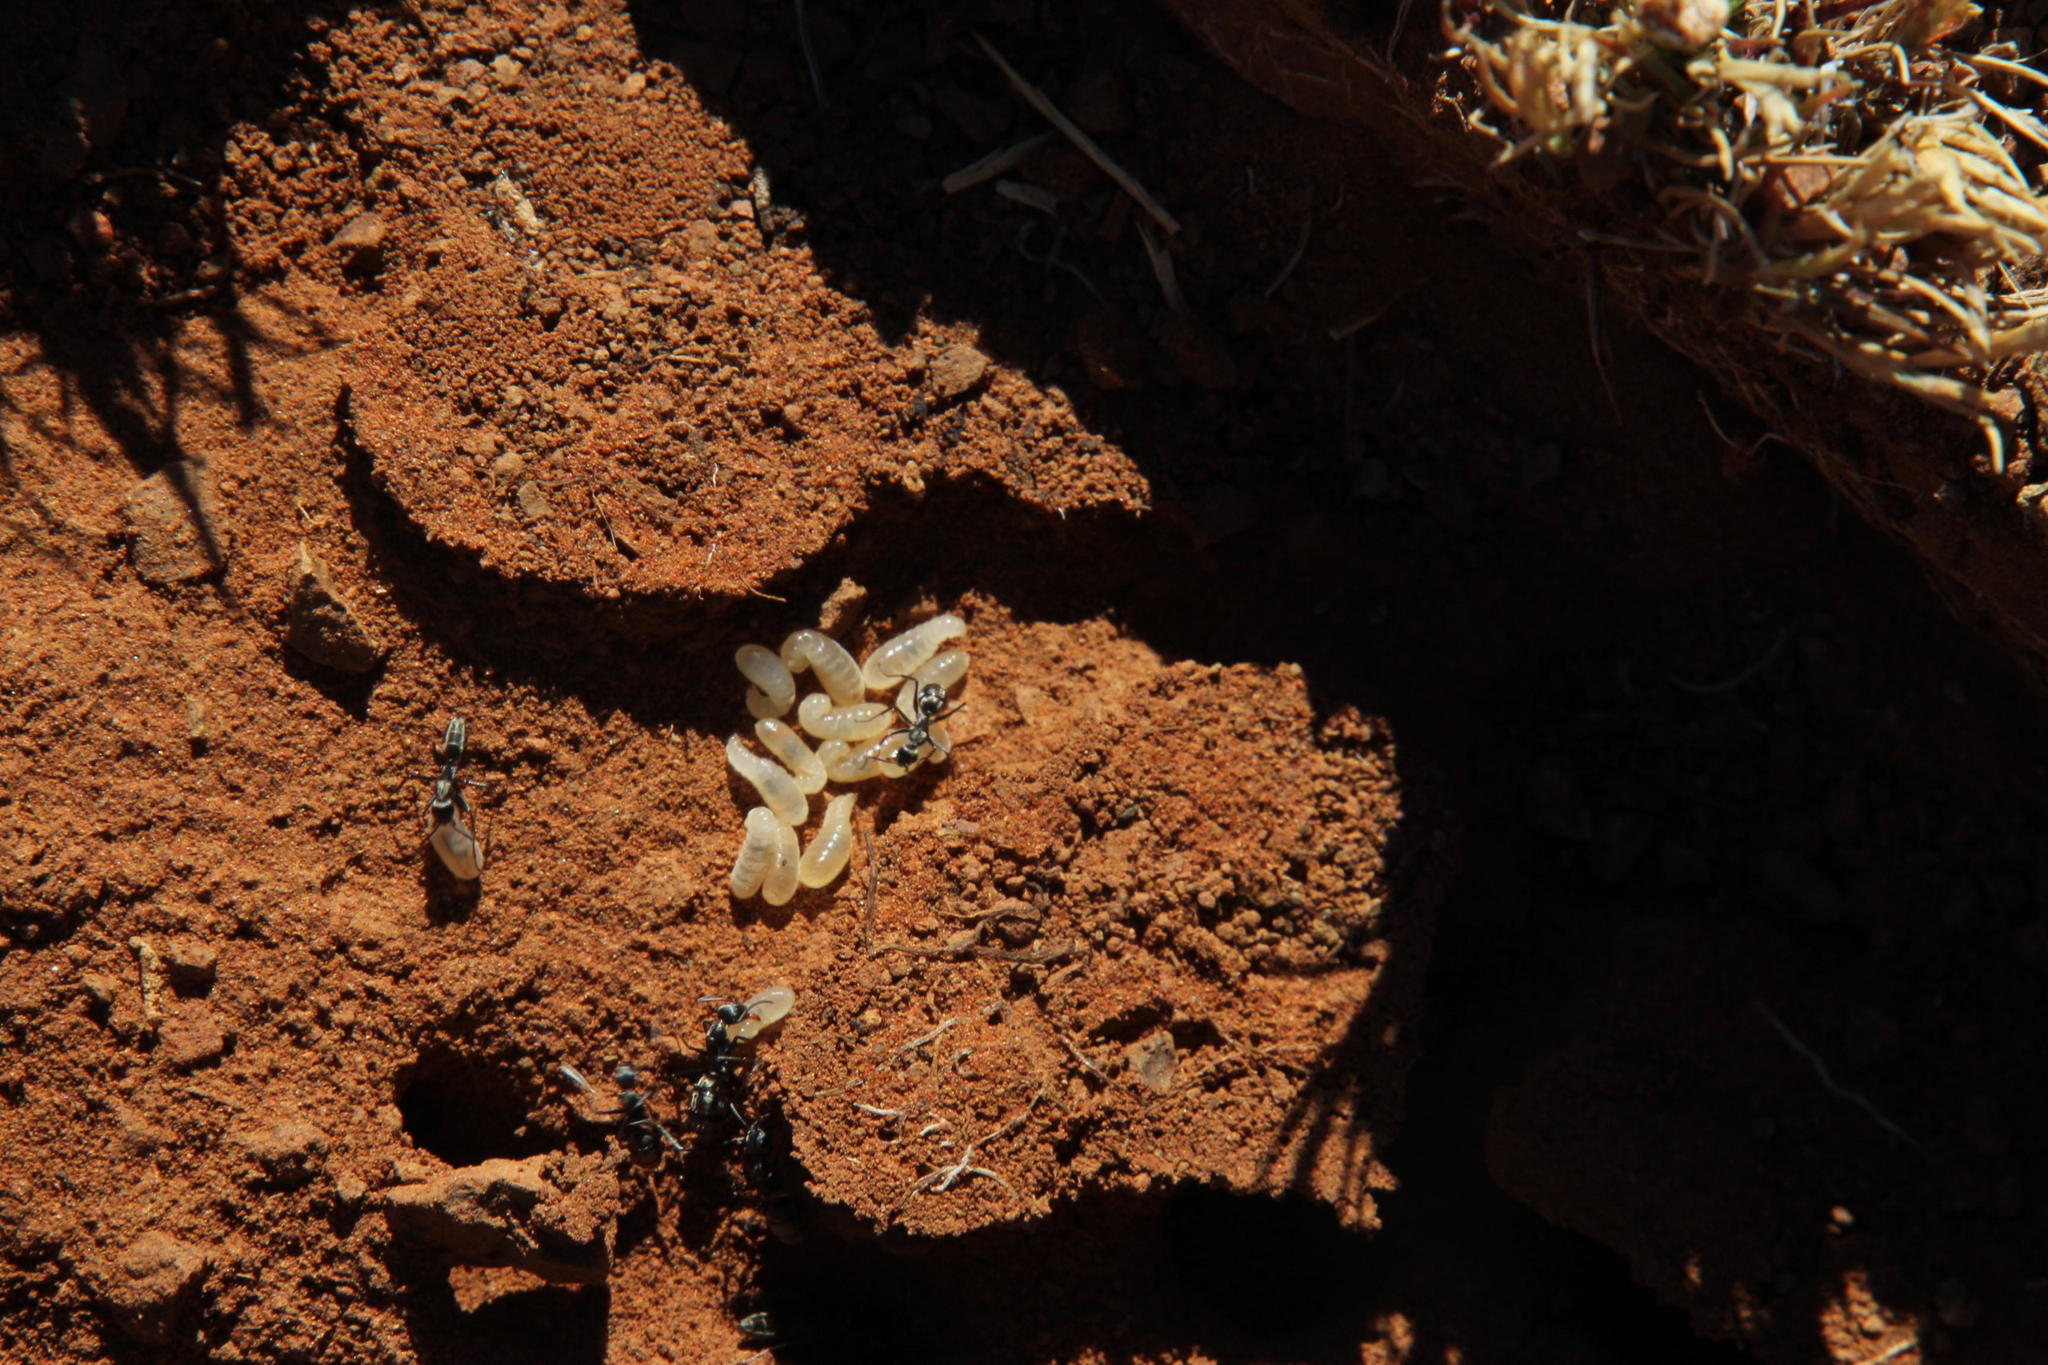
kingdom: Animalia
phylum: Arthropoda
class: Insecta
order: Hymenoptera
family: Formicidae
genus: Camponotus
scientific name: Camponotus vestitus
